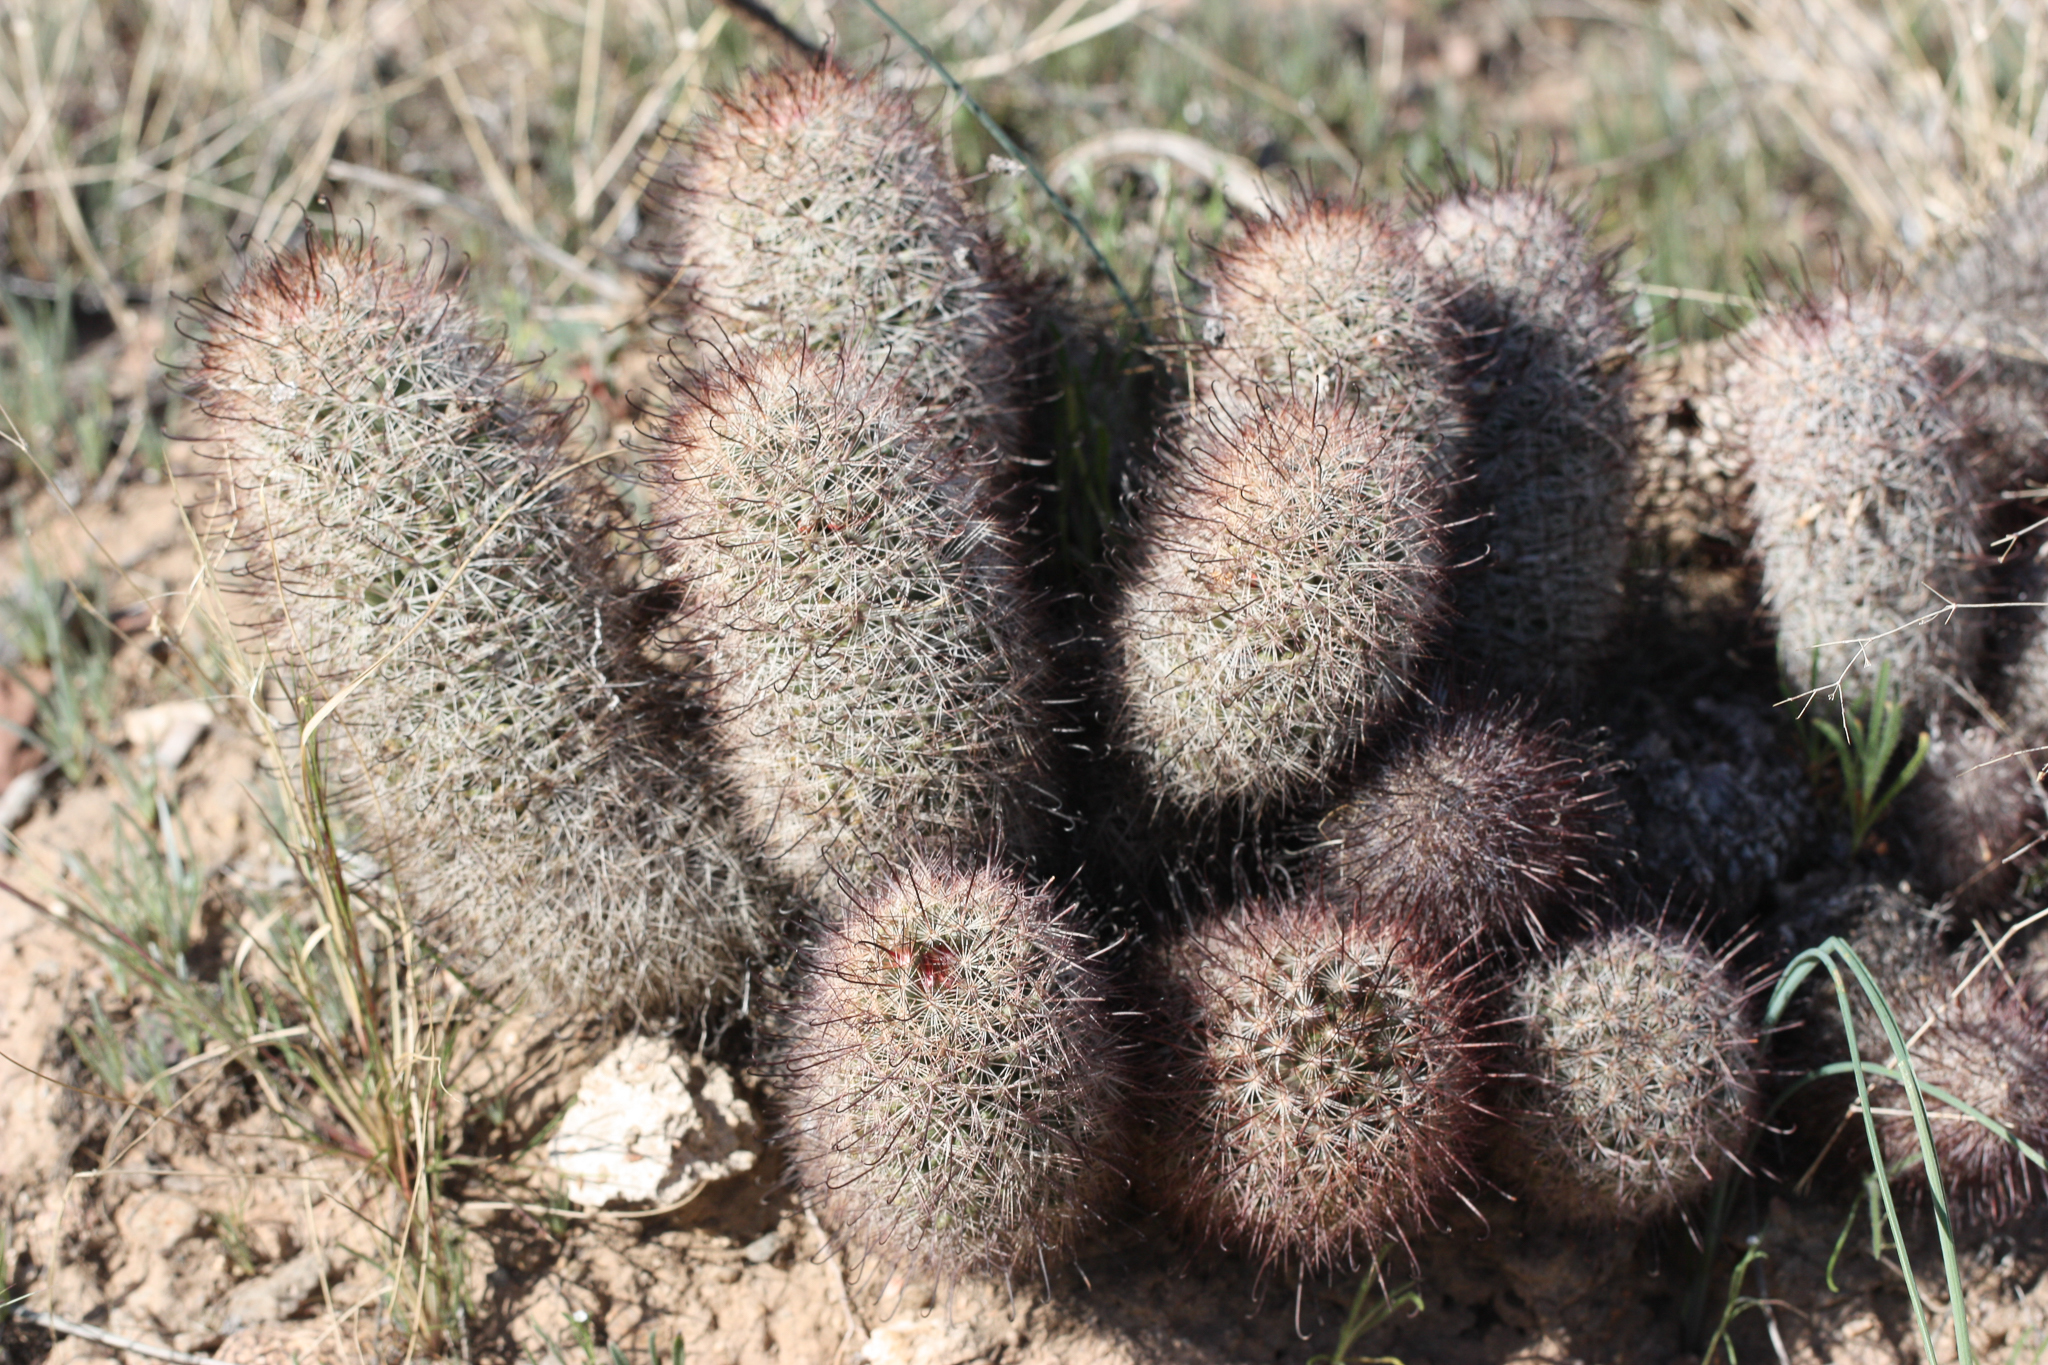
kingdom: Plantae
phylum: Tracheophyta
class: Magnoliopsida
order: Caryophyllales
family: Cactaceae
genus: Cochemiea
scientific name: Cochemiea grahamii
